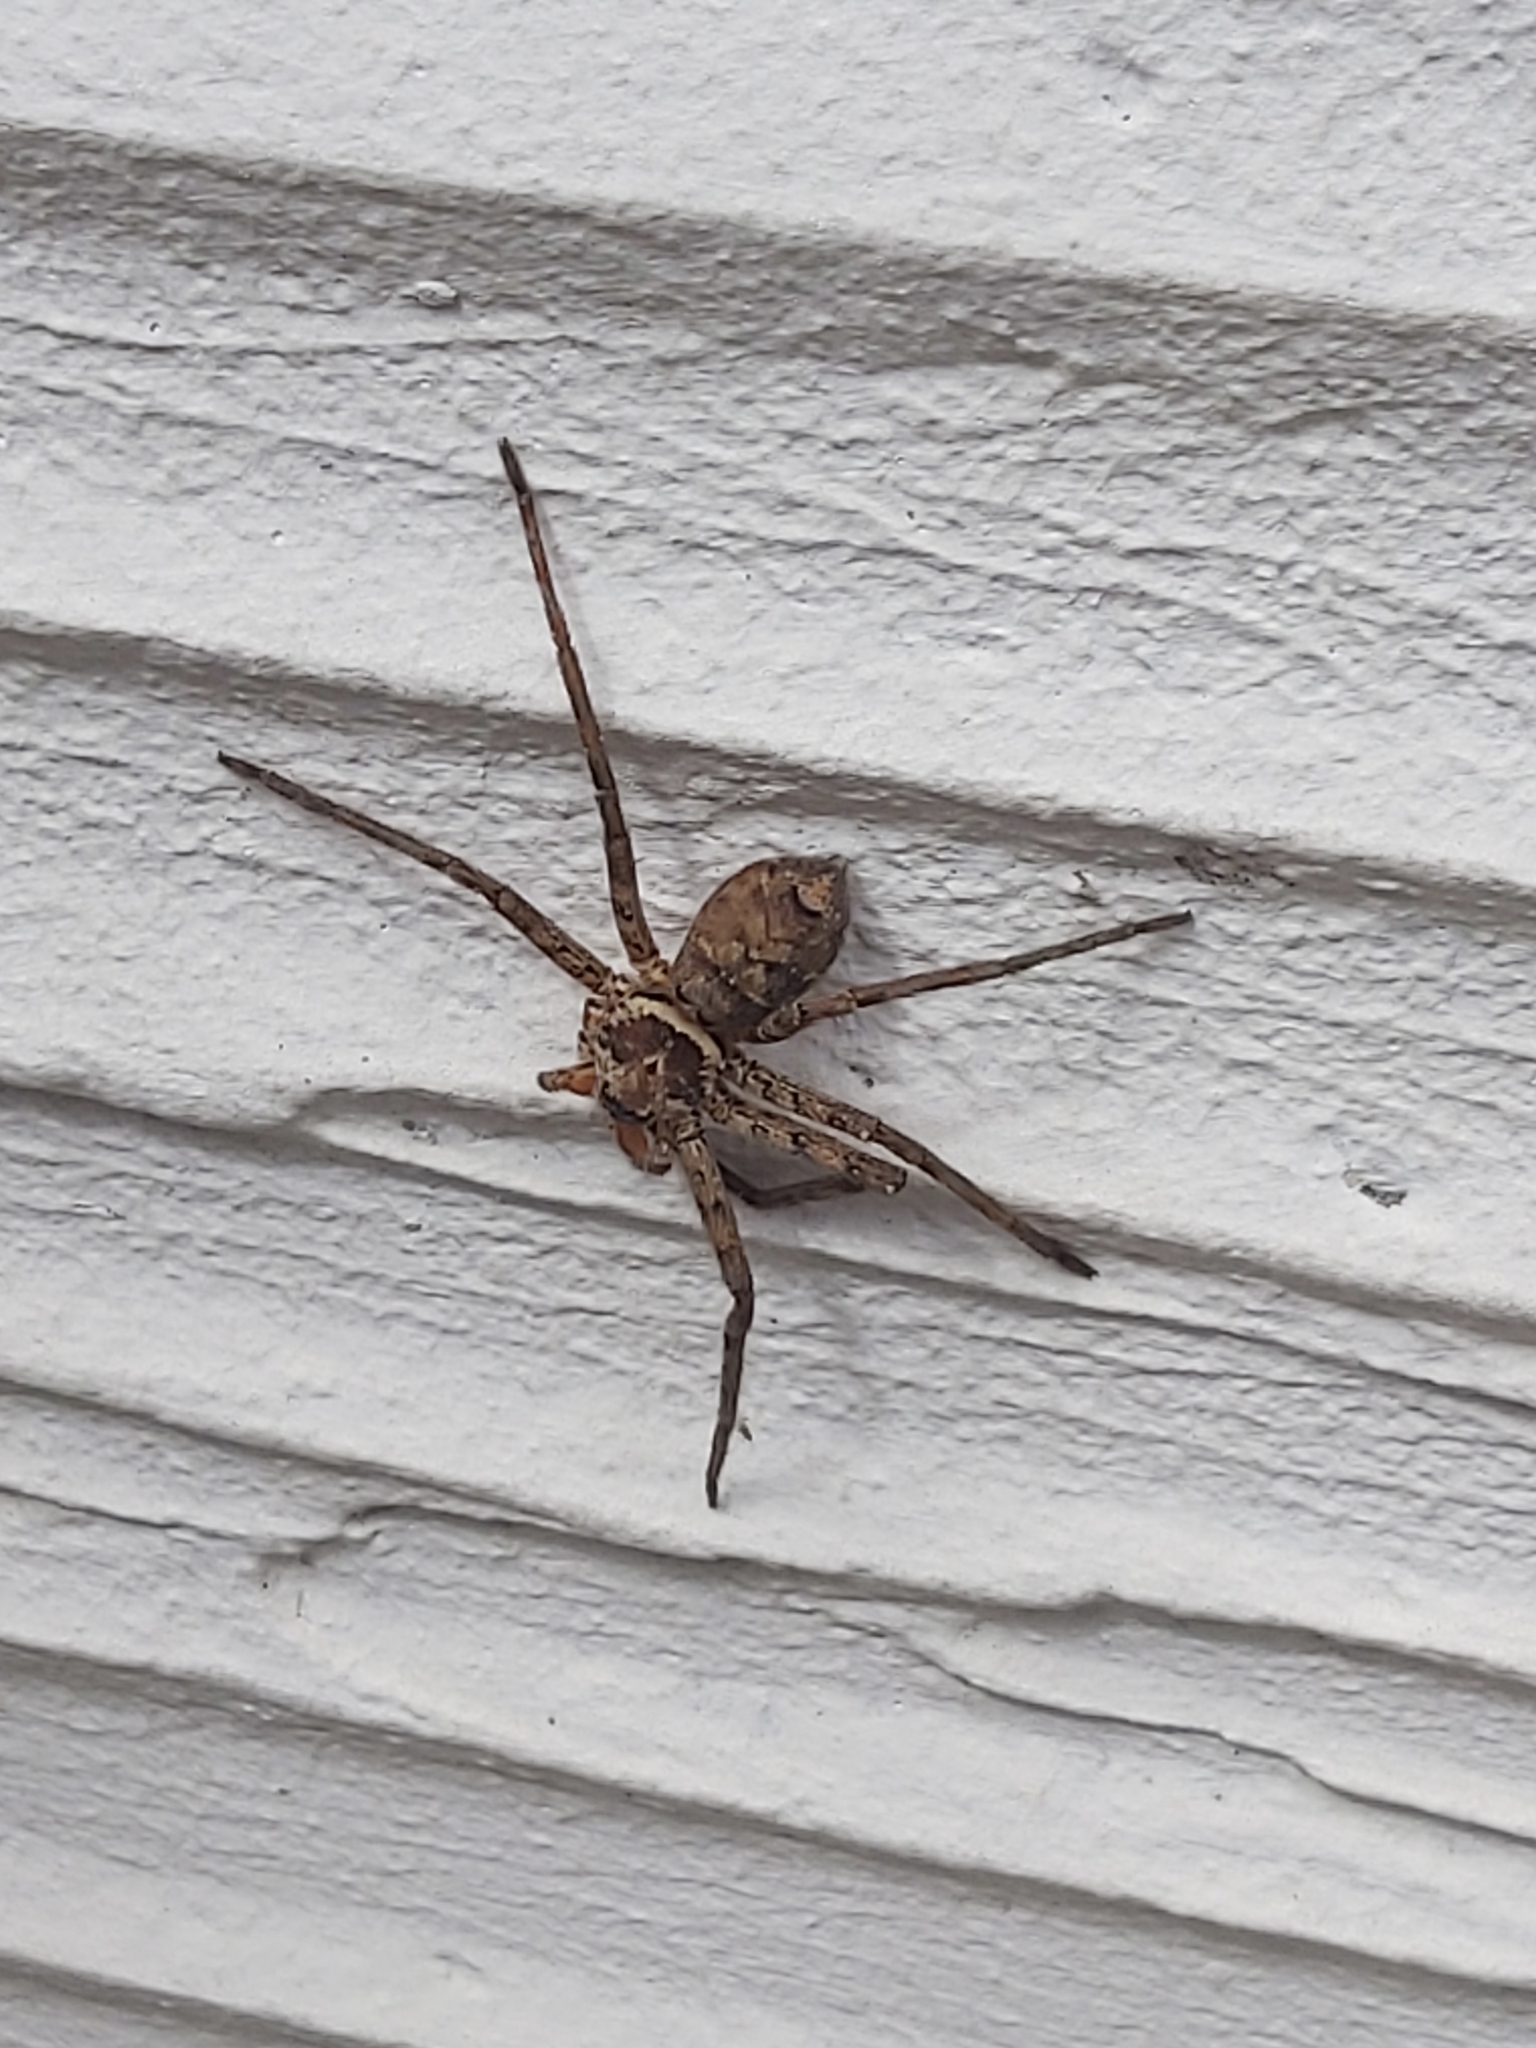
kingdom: Animalia
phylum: Arthropoda
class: Arachnida
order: Araneae
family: Sparassidae
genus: Heteropoda
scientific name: Heteropoda venatoria
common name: Huntsman spider
